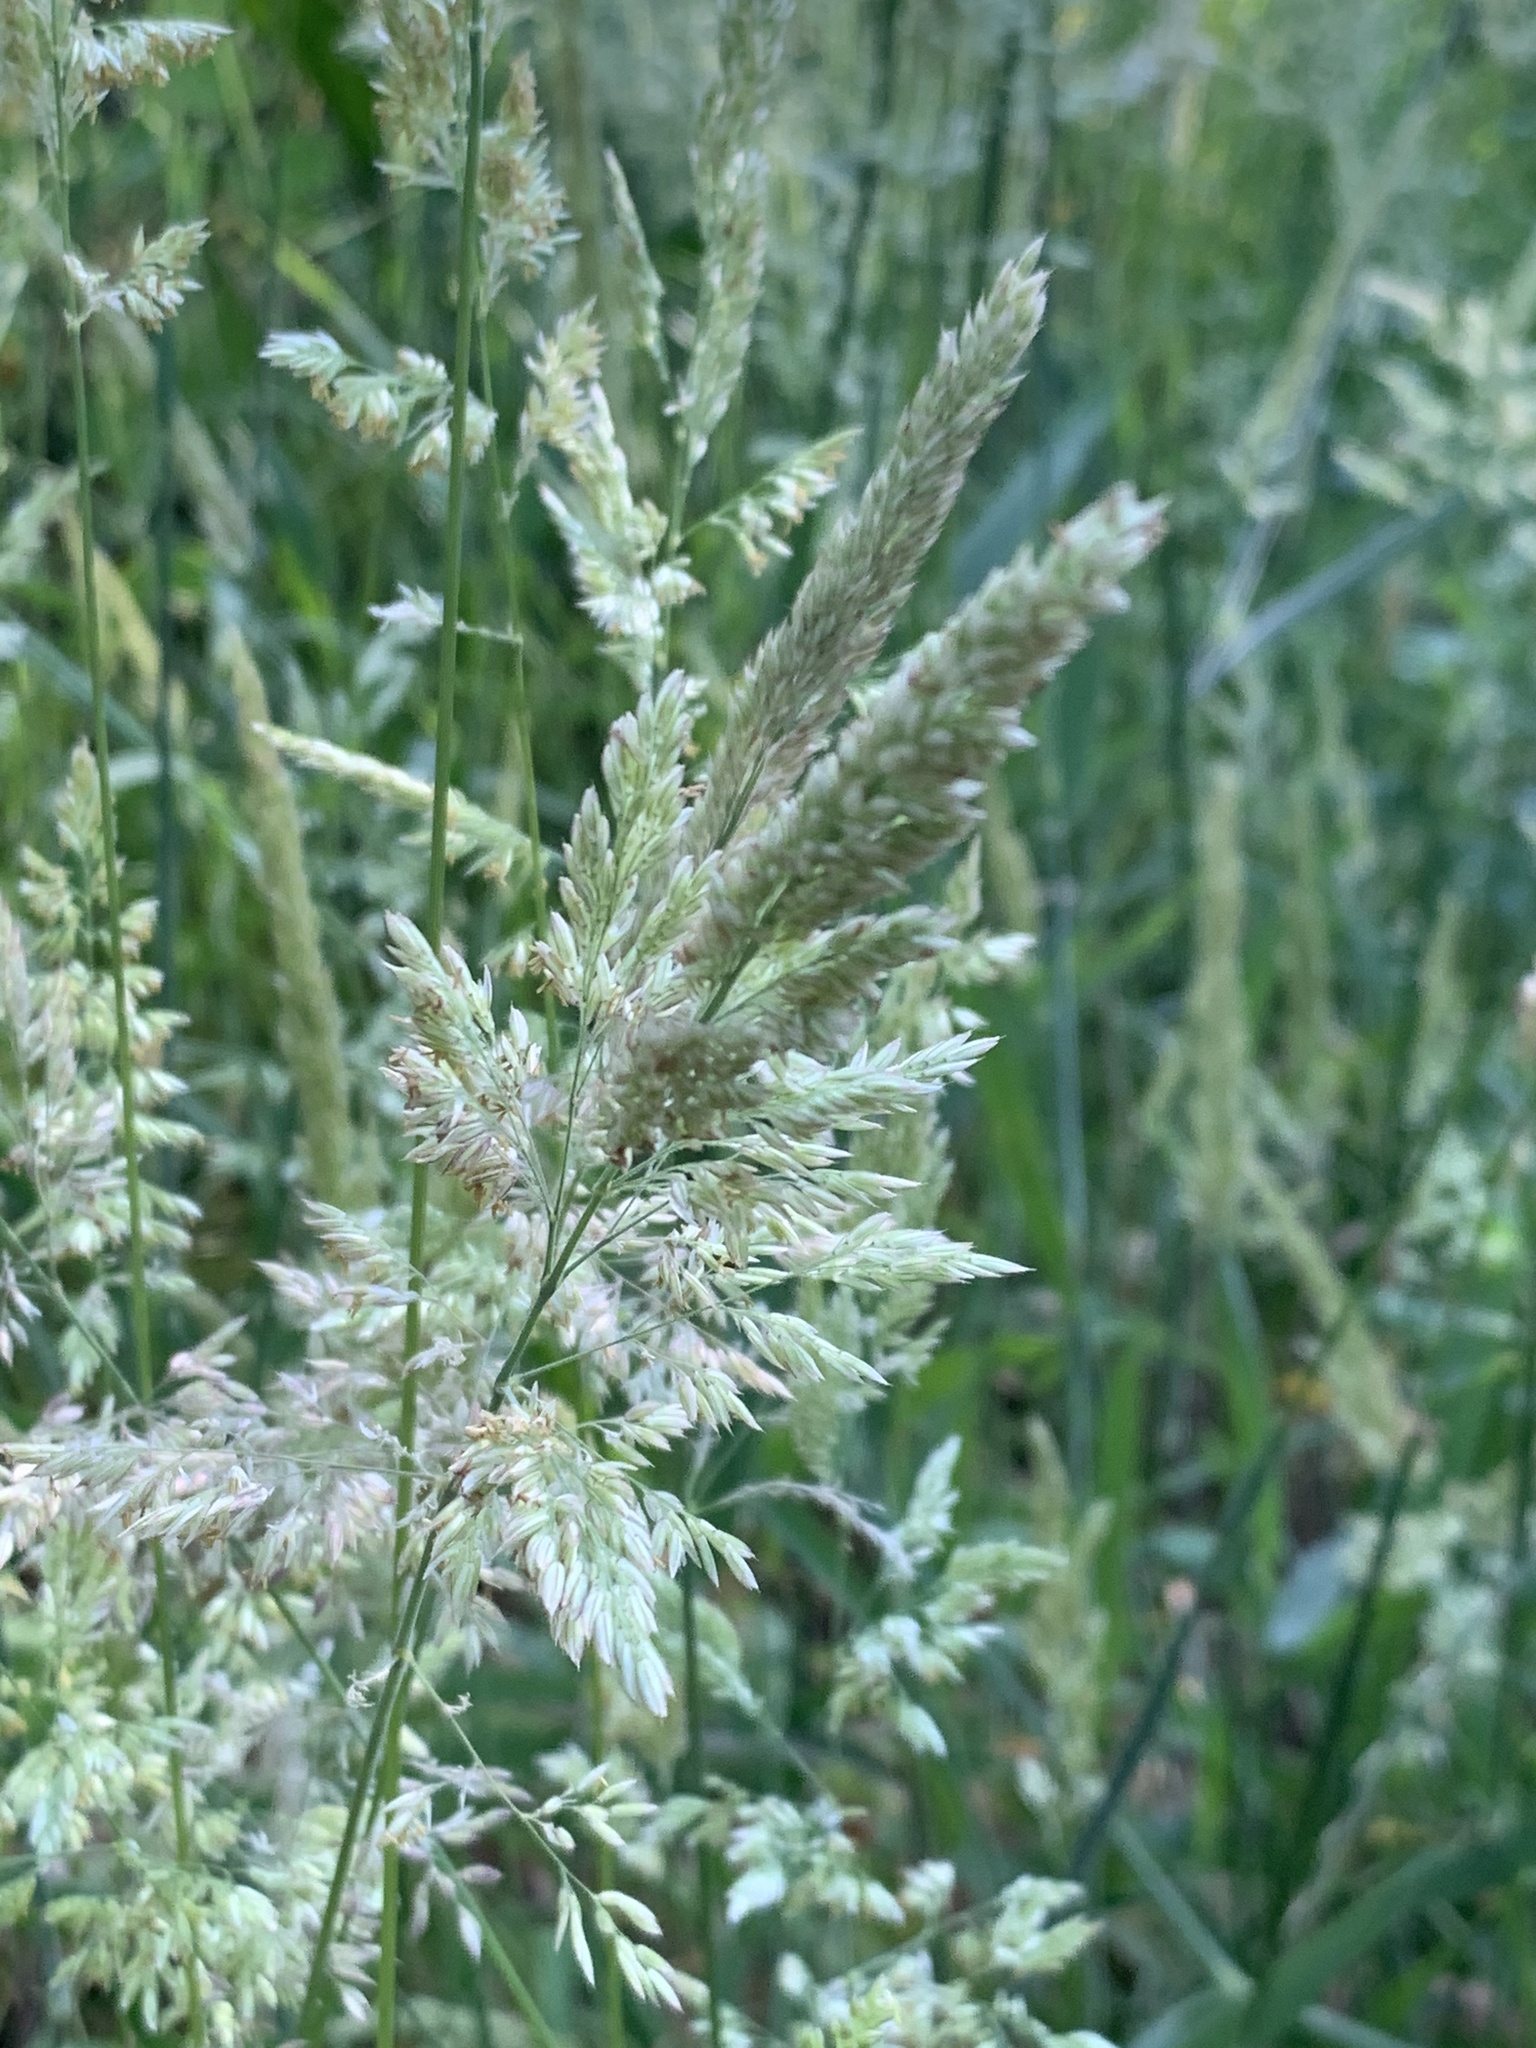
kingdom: Plantae
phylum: Tracheophyta
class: Liliopsida
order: Poales
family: Poaceae
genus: Holcus
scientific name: Holcus lanatus
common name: Yorkshire-fog
